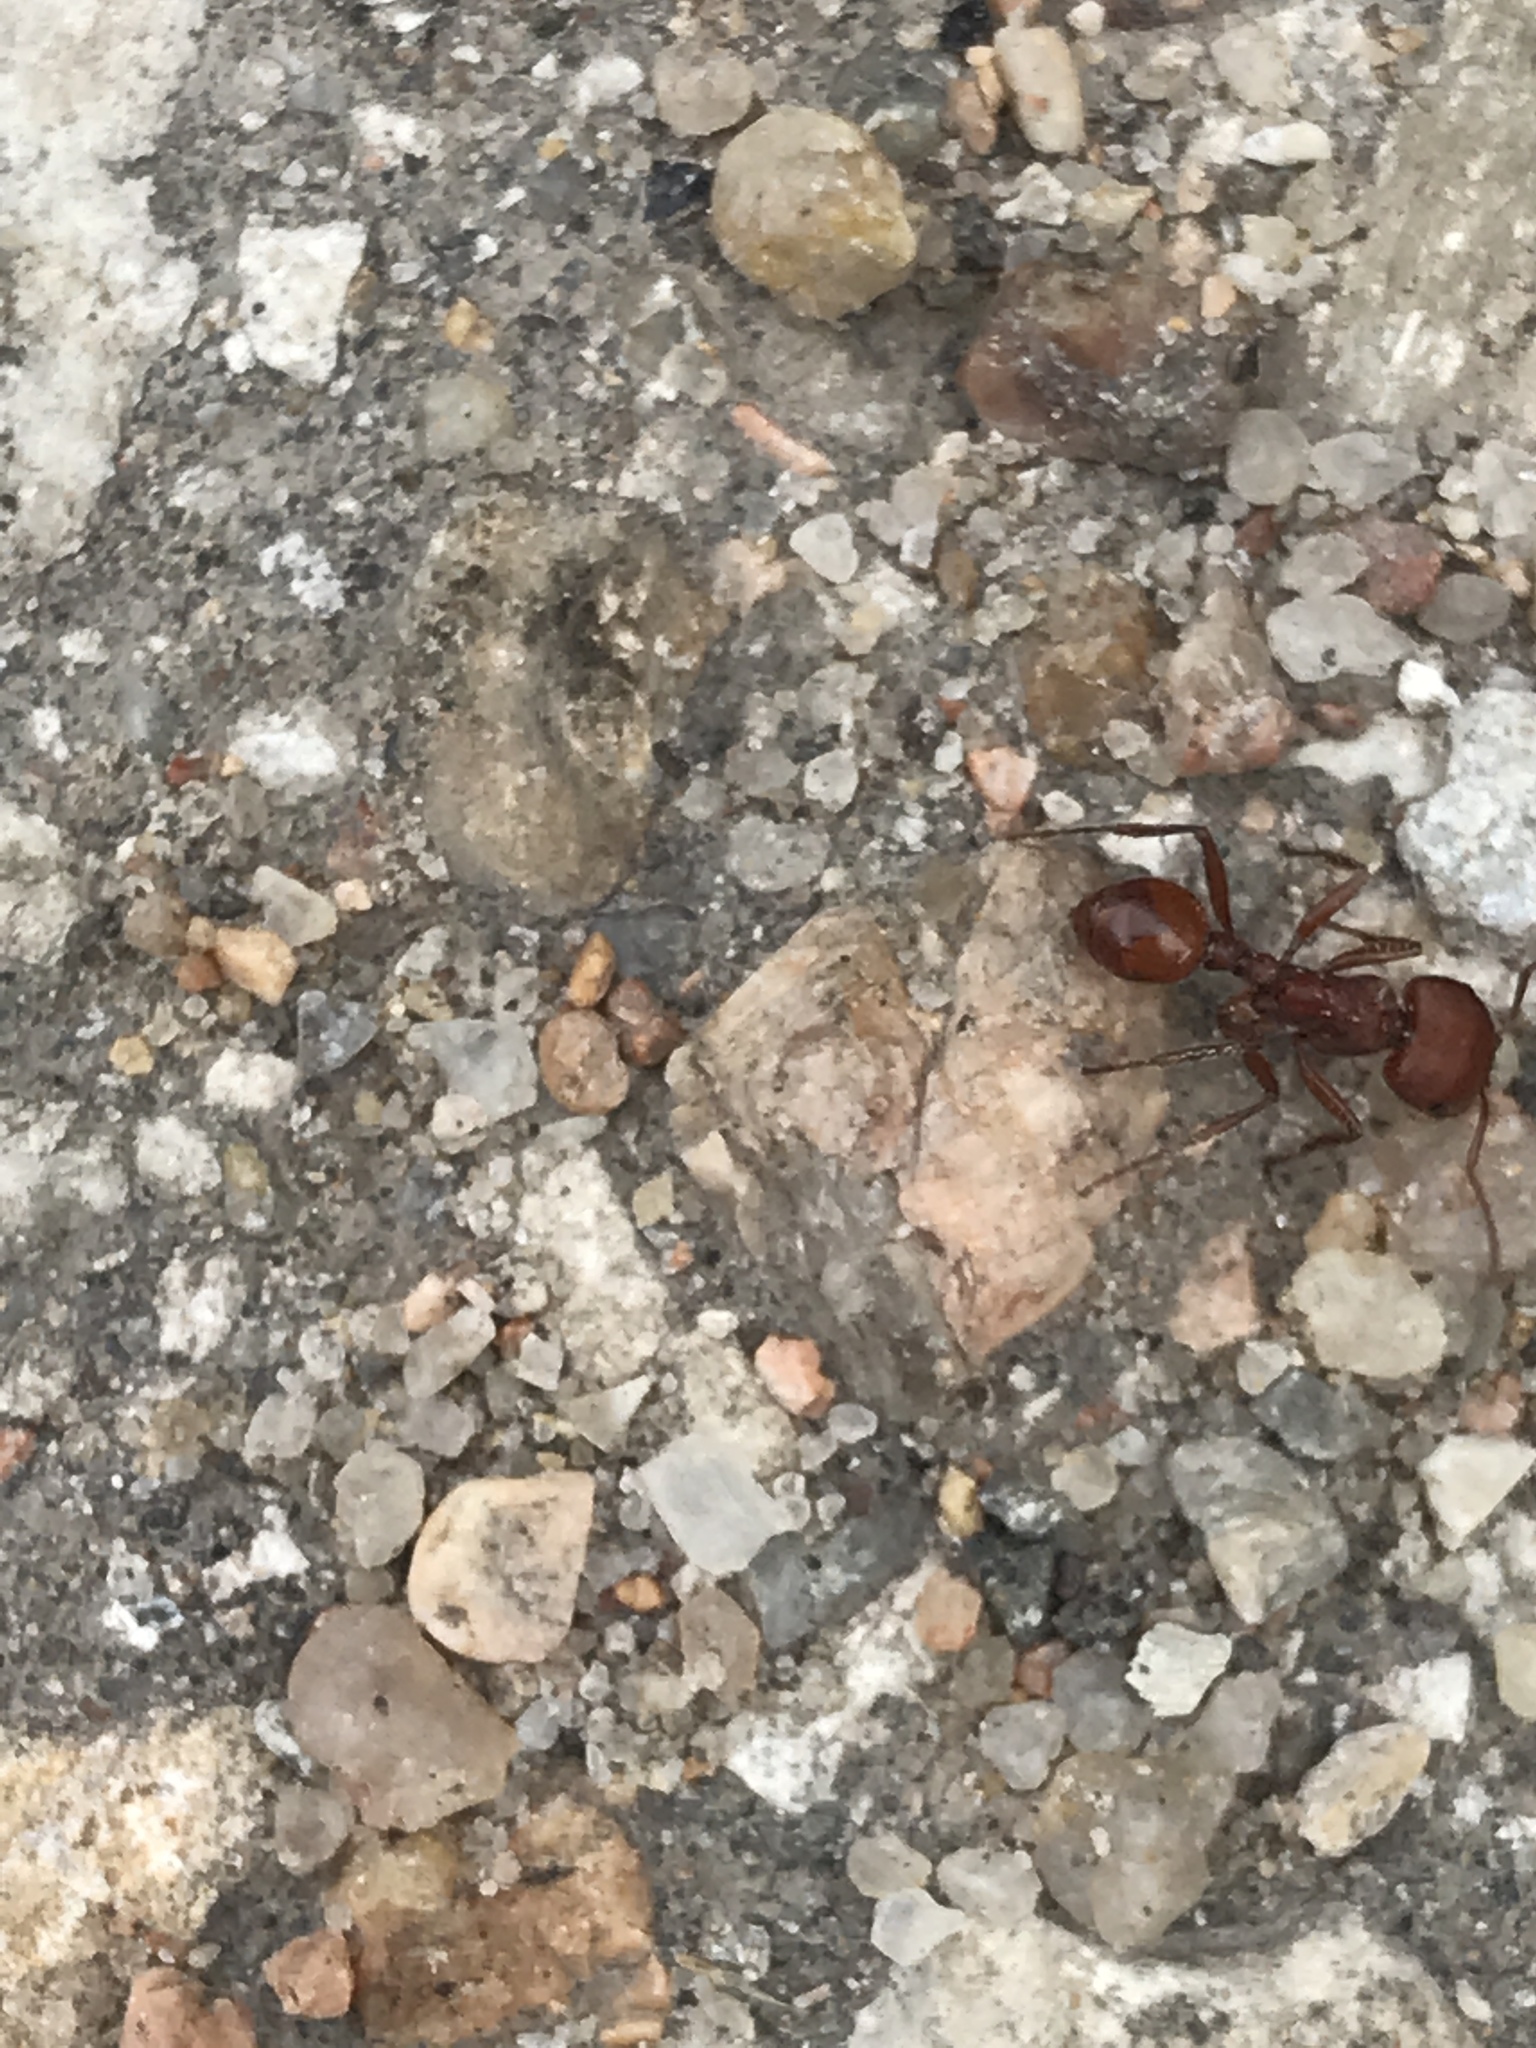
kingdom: Animalia
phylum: Arthropoda
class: Insecta
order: Hymenoptera
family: Formicidae
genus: Pogonomyrmex
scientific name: Pogonomyrmex barbatus
